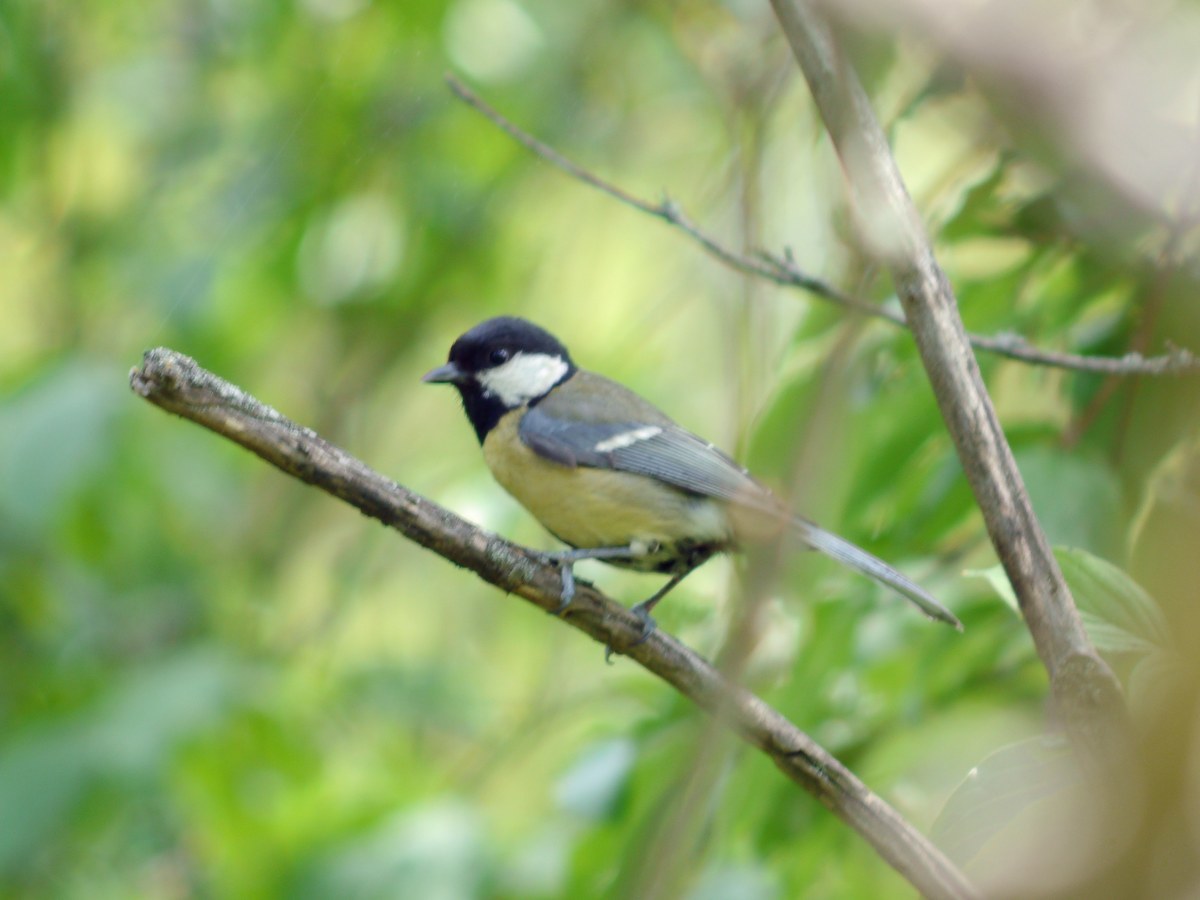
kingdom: Animalia
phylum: Chordata
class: Aves
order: Passeriformes
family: Paridae
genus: Parus
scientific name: Parus major
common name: Great tit
